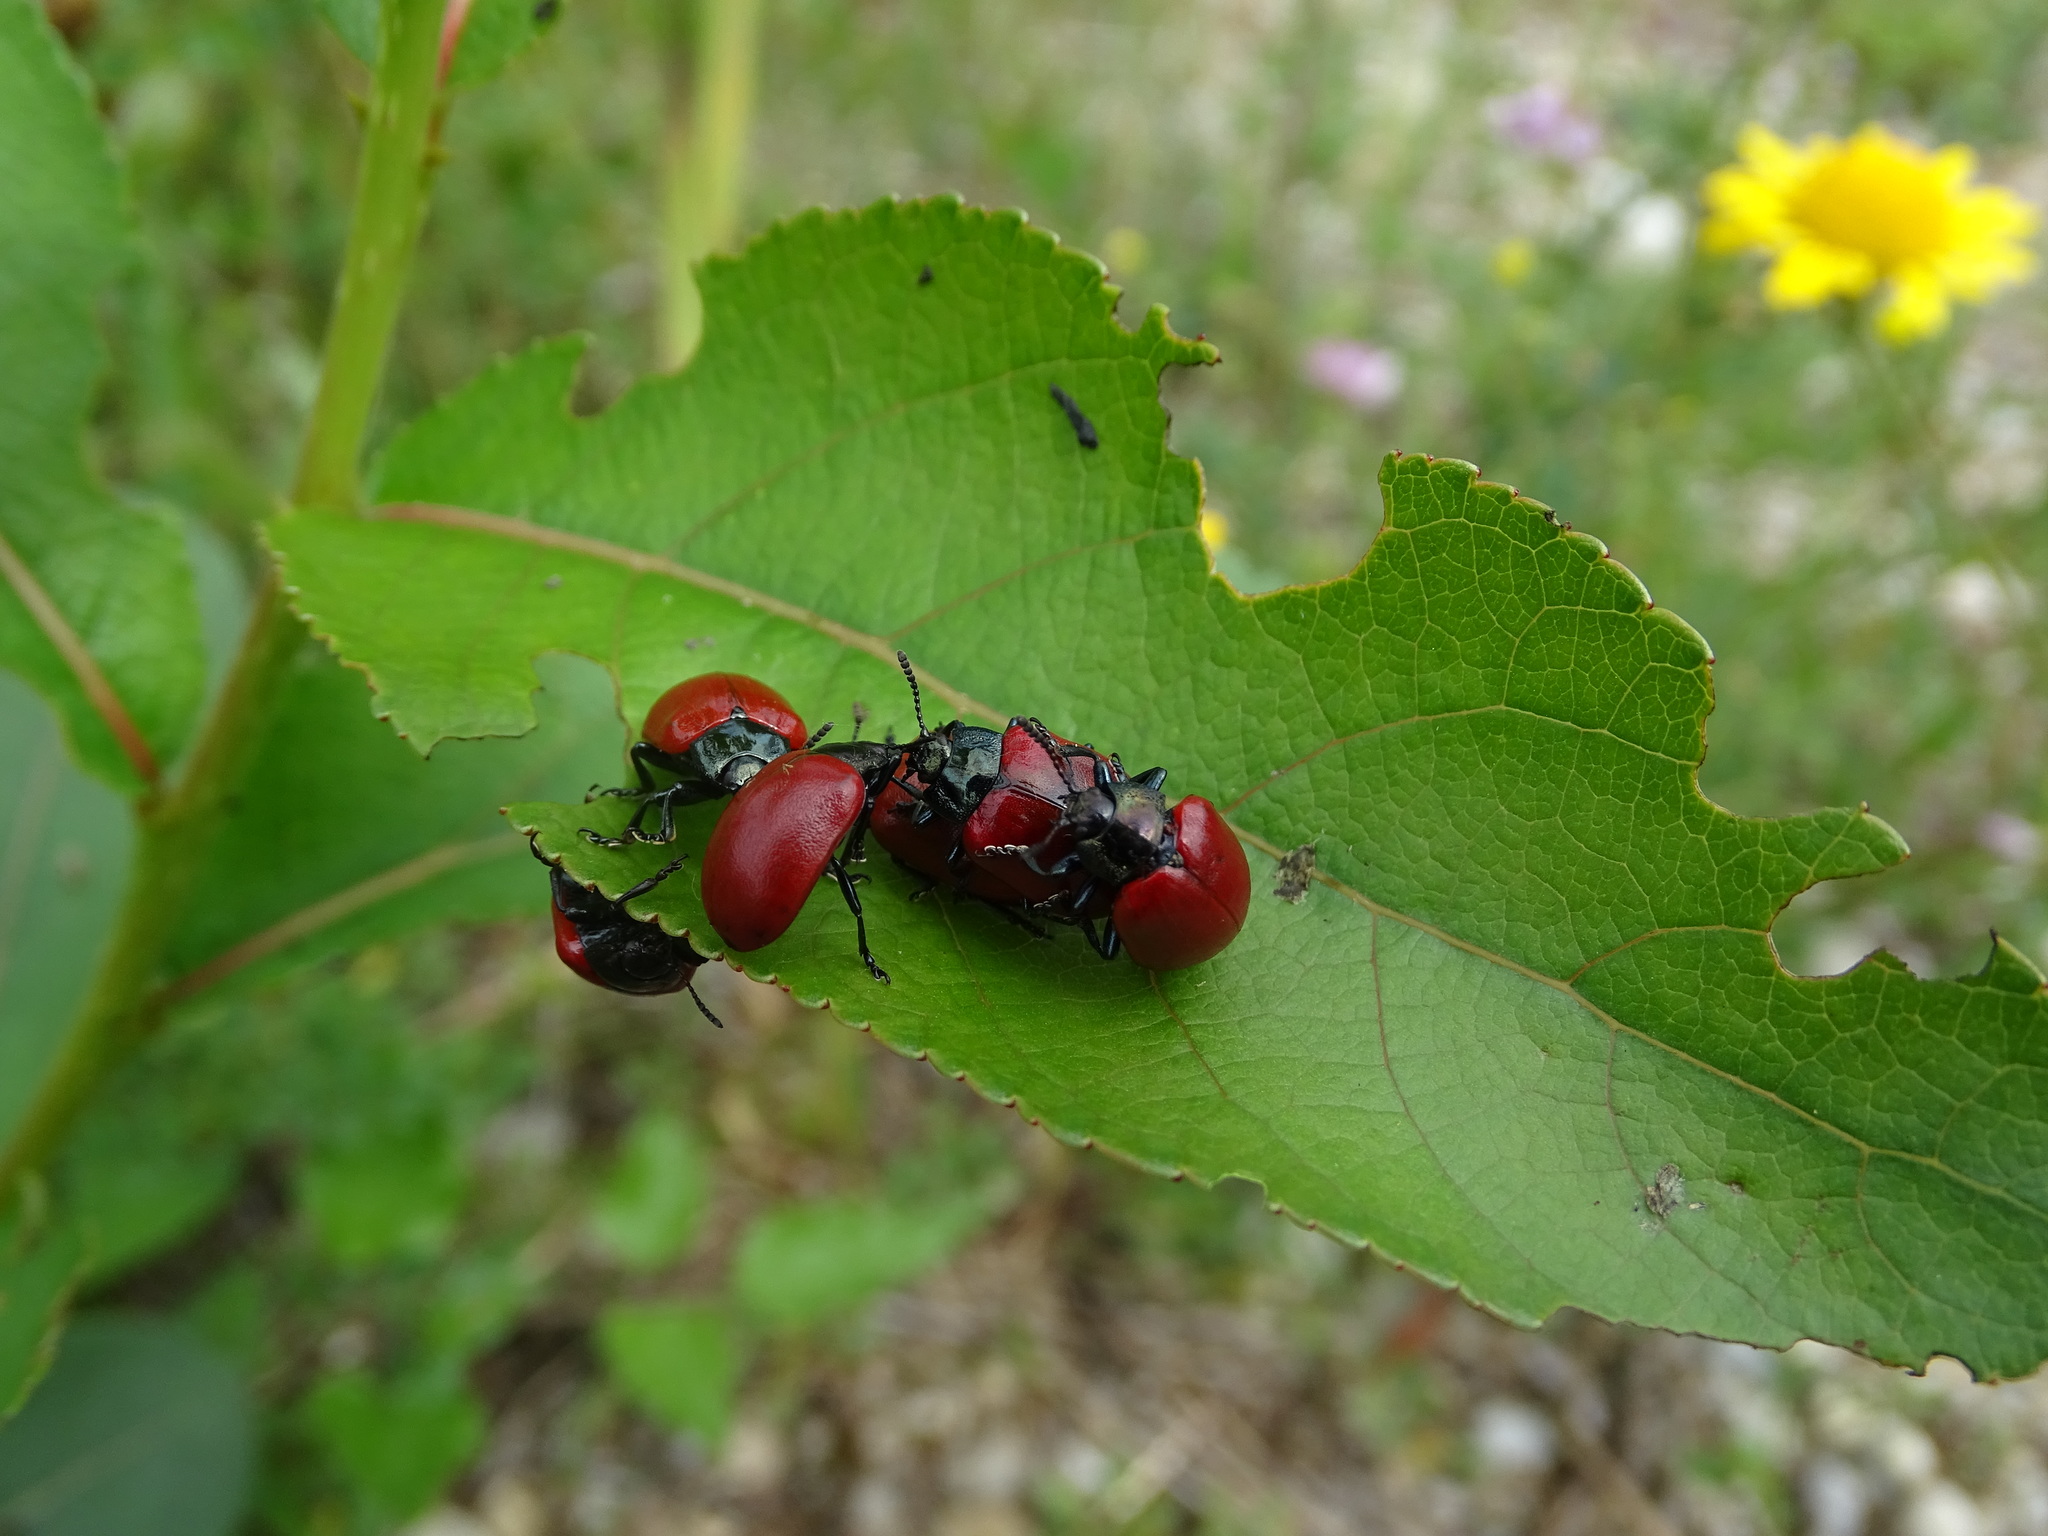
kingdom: Animalia
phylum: Arthropoda
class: Insecta
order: Coleoptera
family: Chrysomelidae
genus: Chrysomela
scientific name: Chrysomela populi
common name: Red poplar leaf beetle
